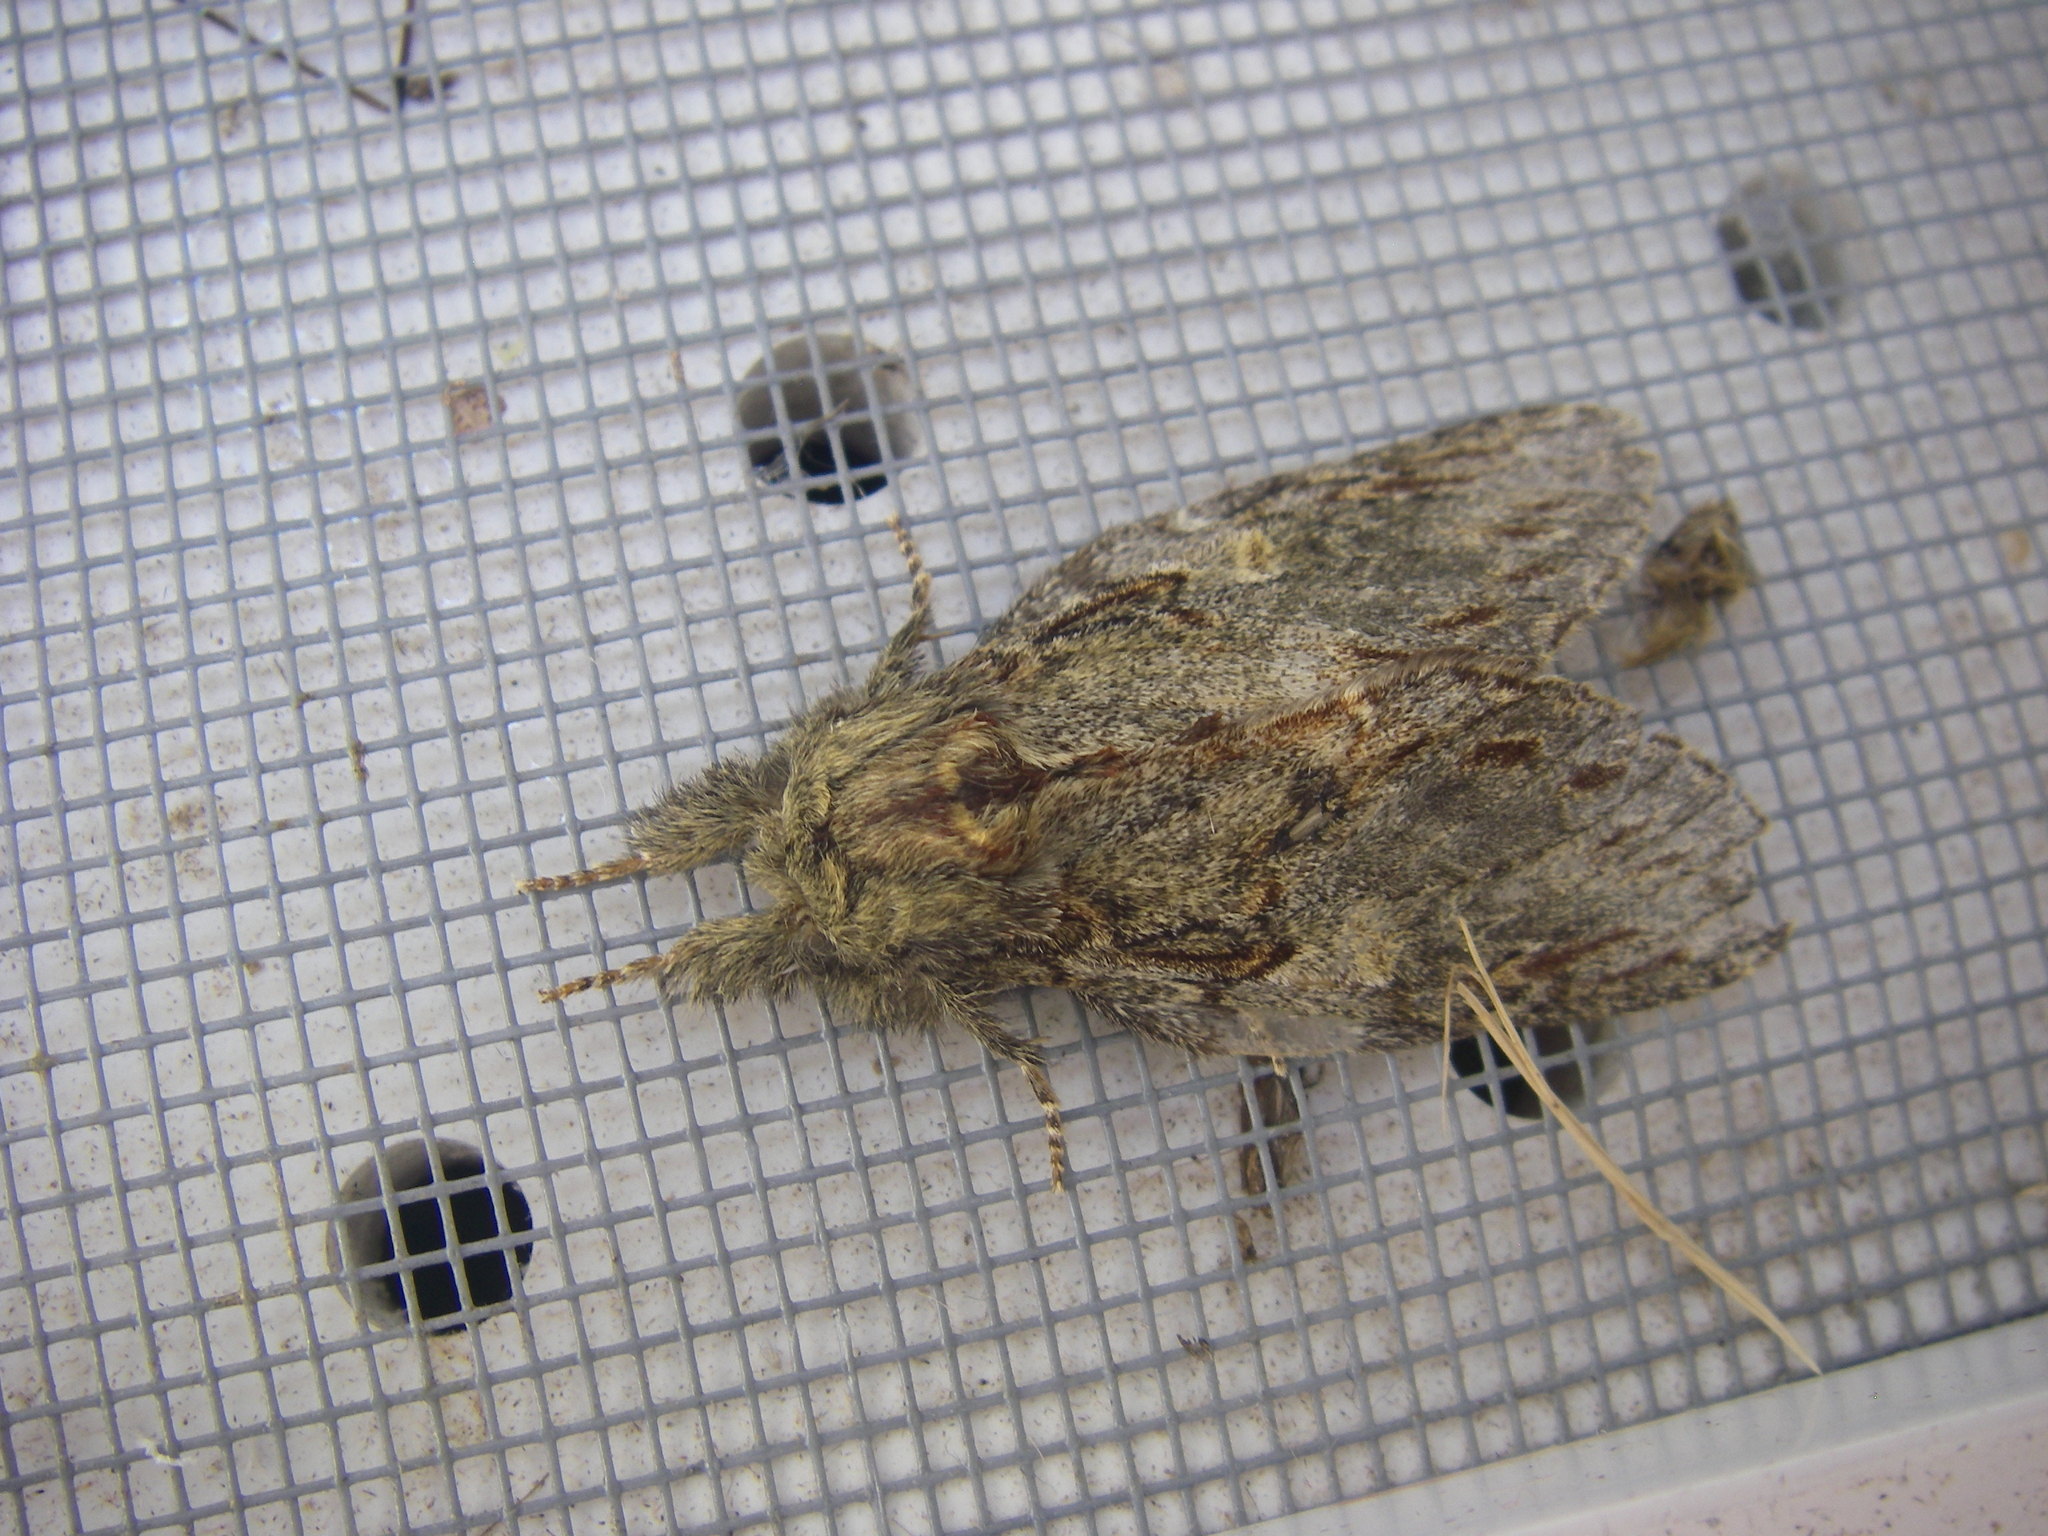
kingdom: Animalia
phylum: Arthropoda
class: Insecta
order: Lepidoptera
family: Notodontidae
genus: Peridea
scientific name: Peridea anceps
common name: Great prominent
